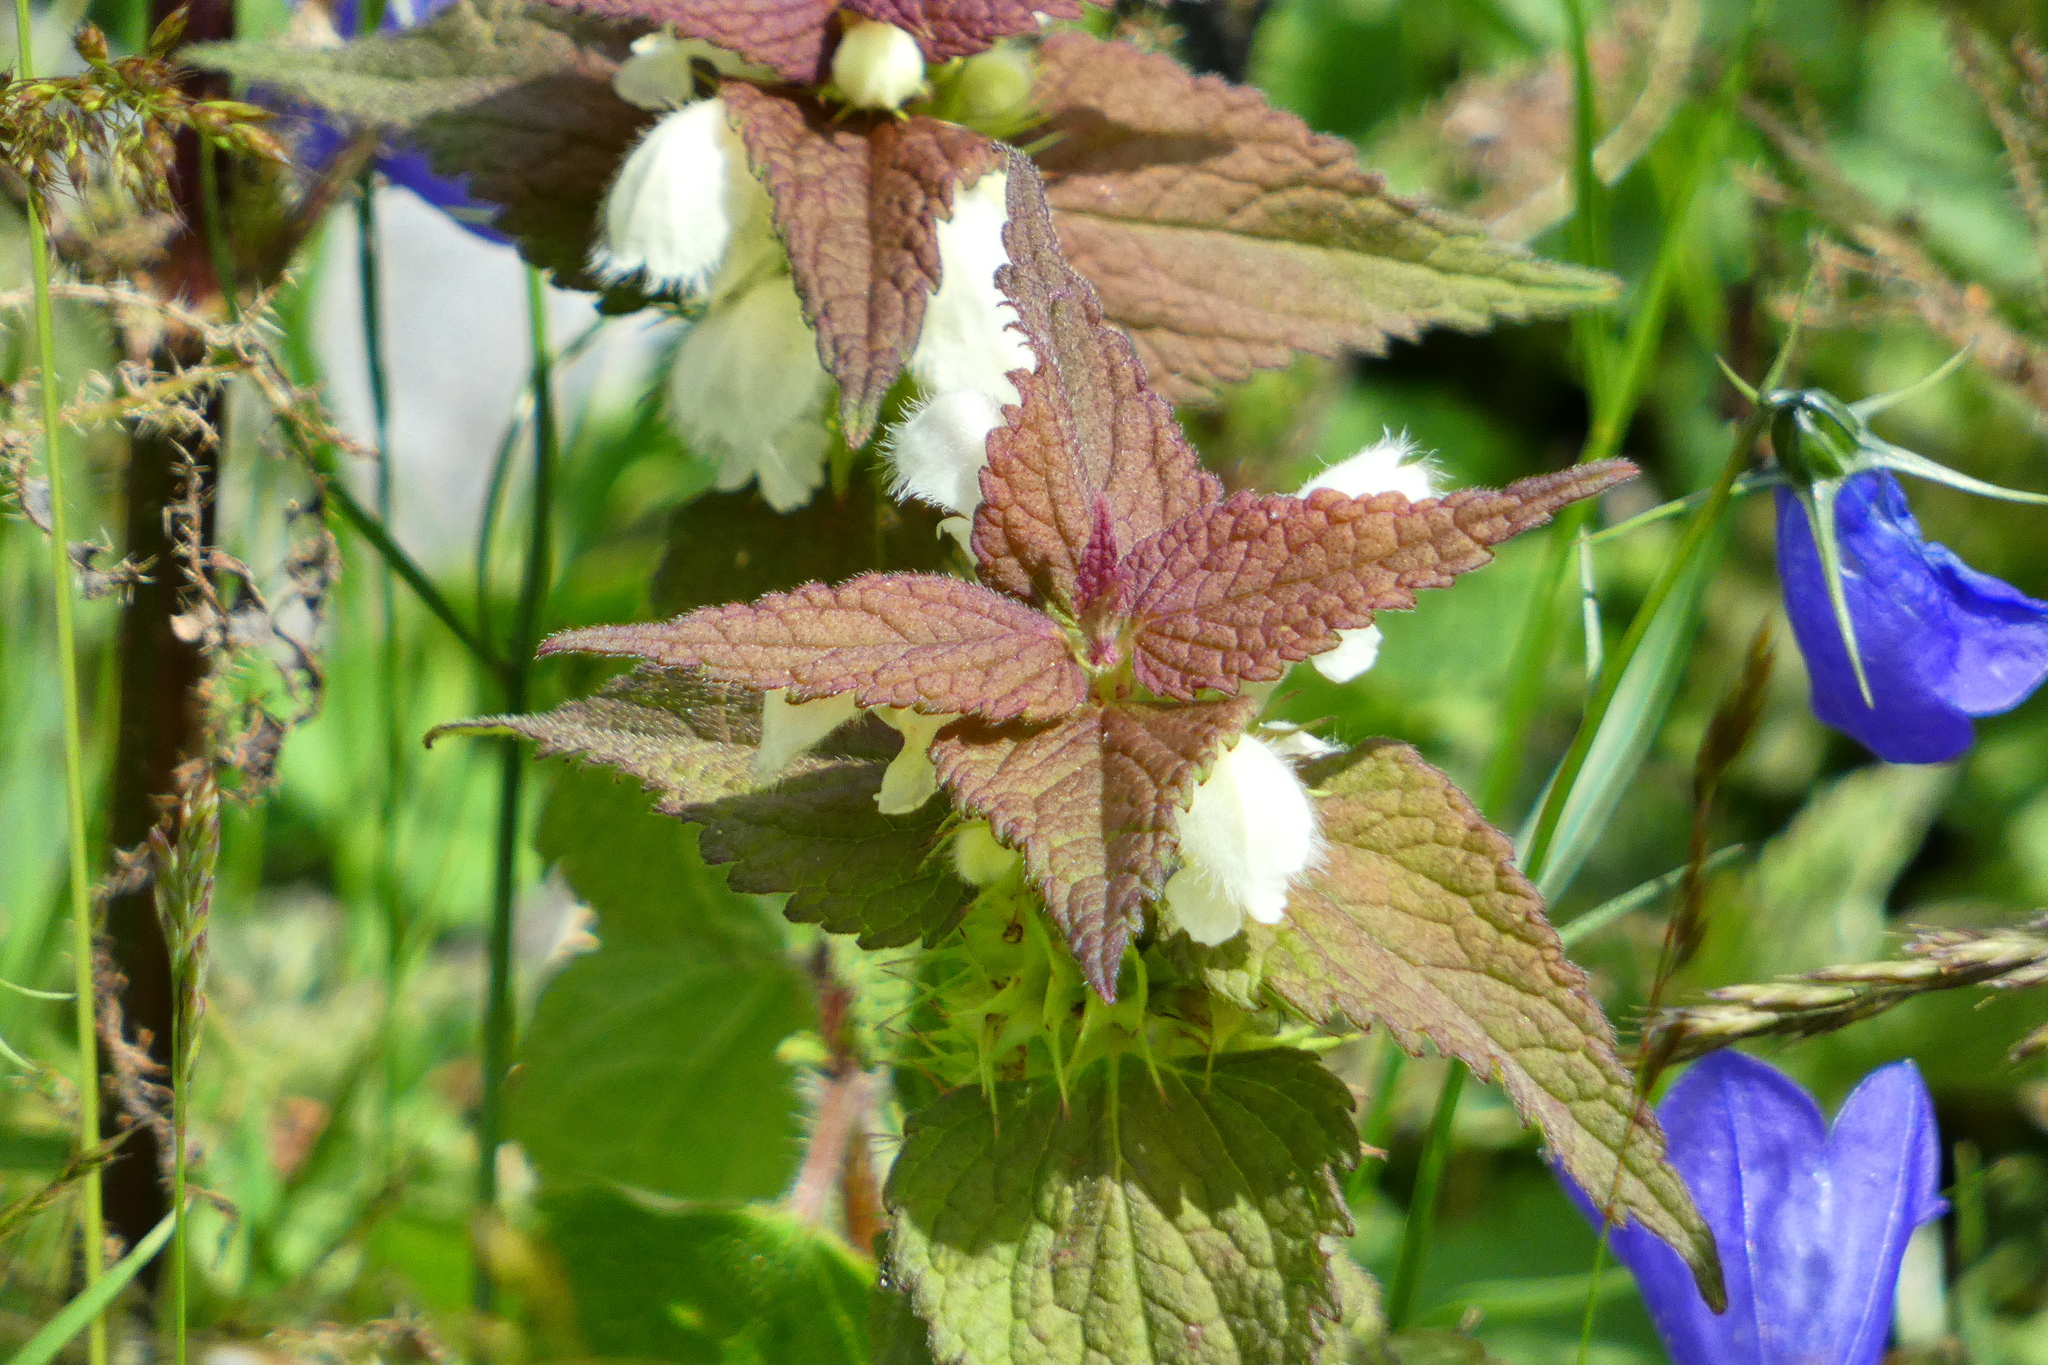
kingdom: Plantae
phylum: Tracheophyta
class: Magnoliopsida
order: Lamiales
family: Lamiaceae
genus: Lamium
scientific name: Lamium album
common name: White dead-nettle
